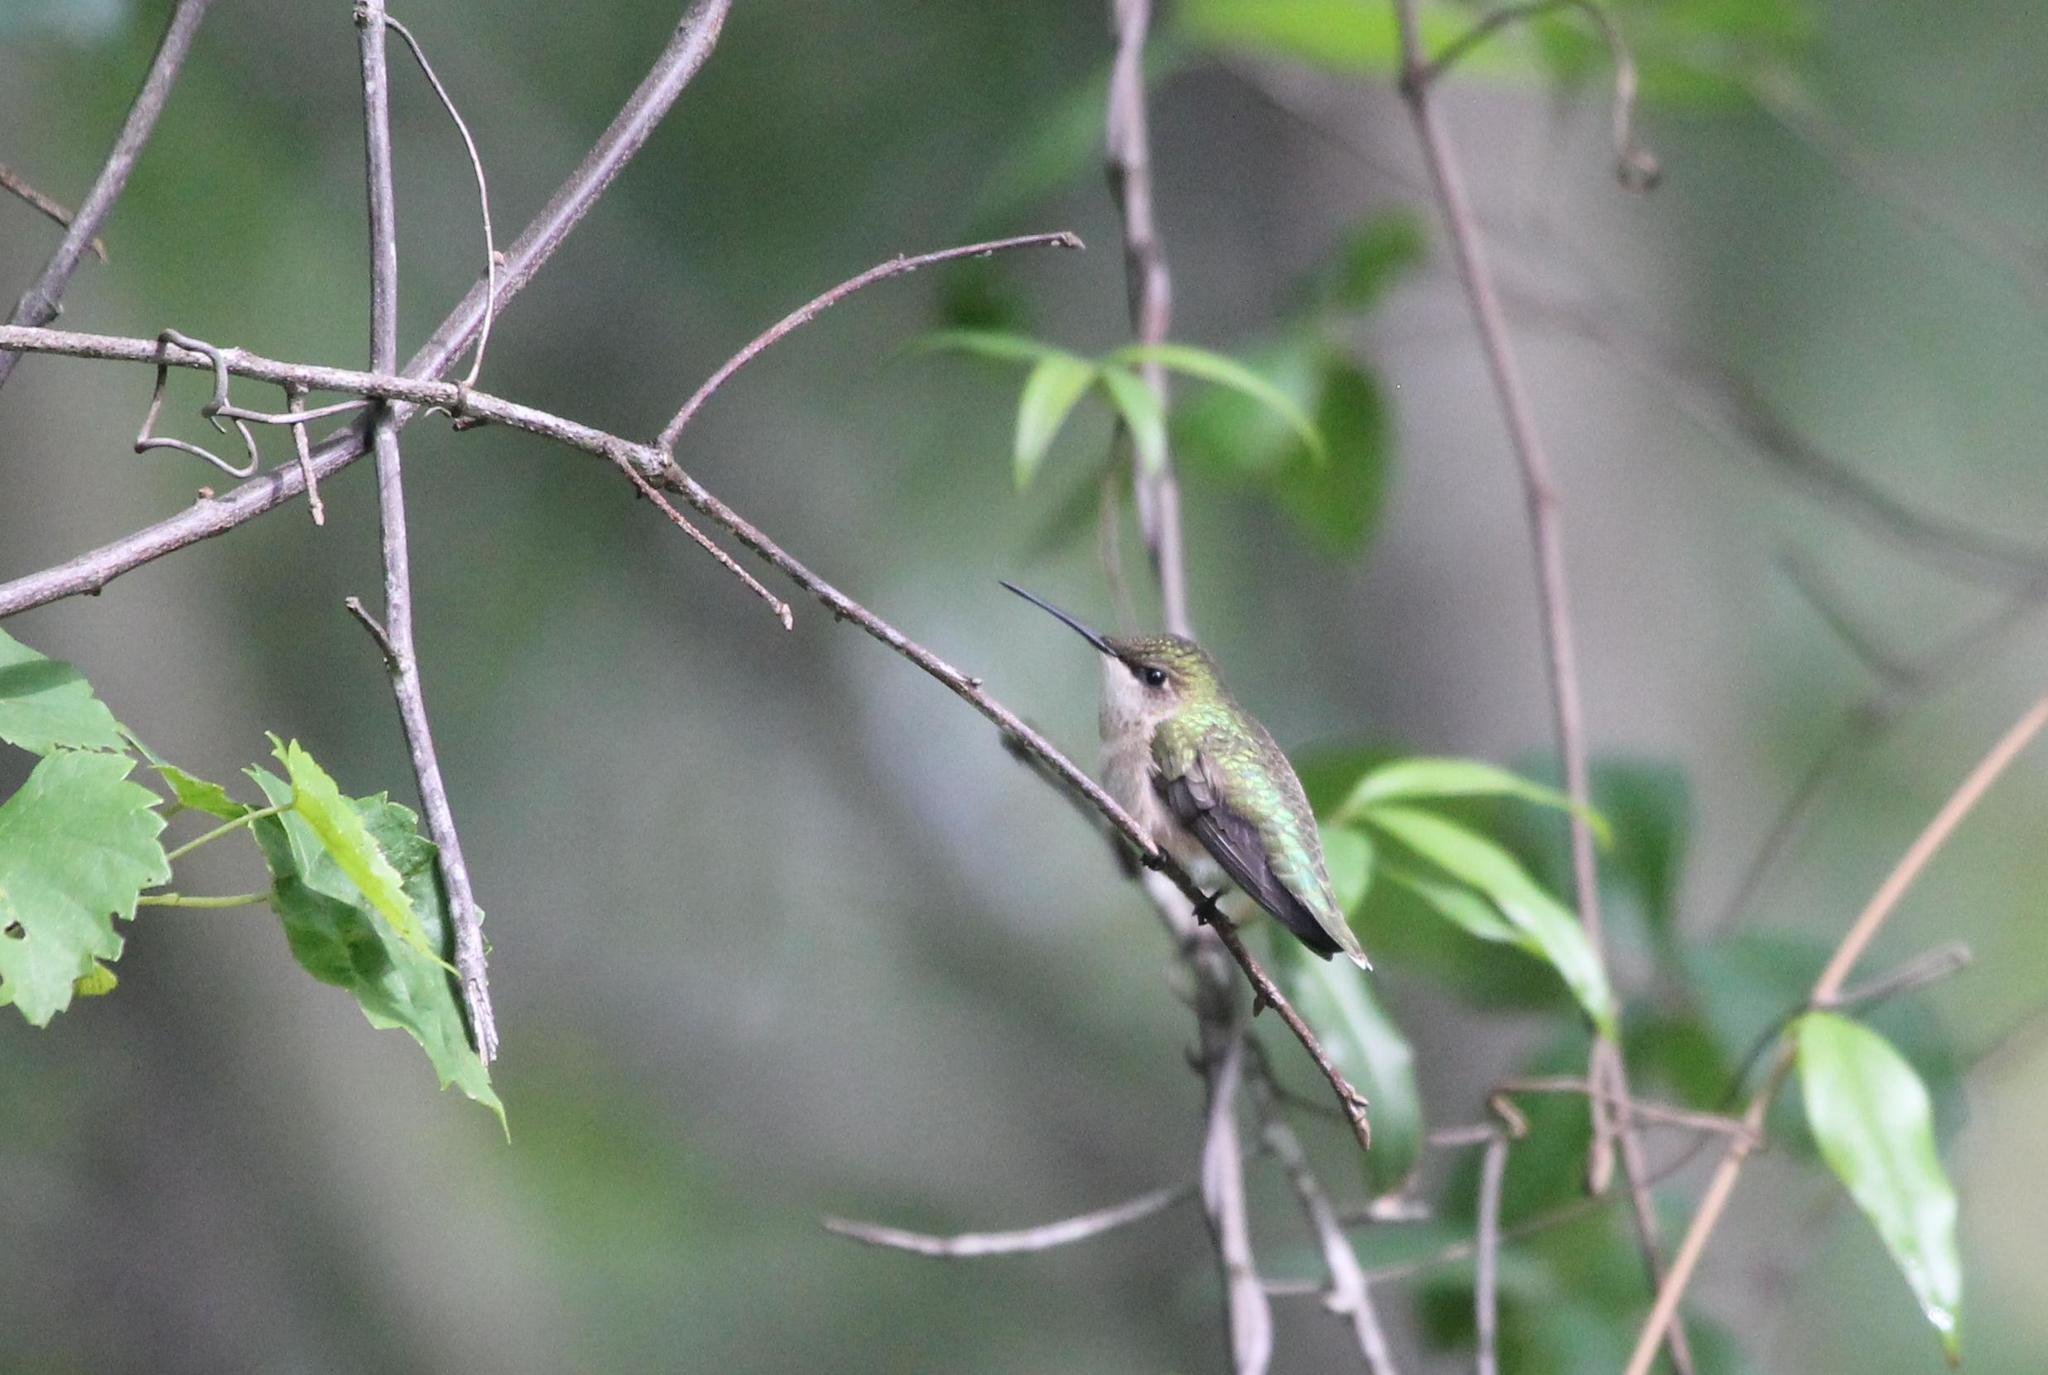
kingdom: Animalia
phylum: Chordata
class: Aves
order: Apodiformes
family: Trochilidae
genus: Archilochus
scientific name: Archilochus colubris
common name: Ruby-throated hummingbird
